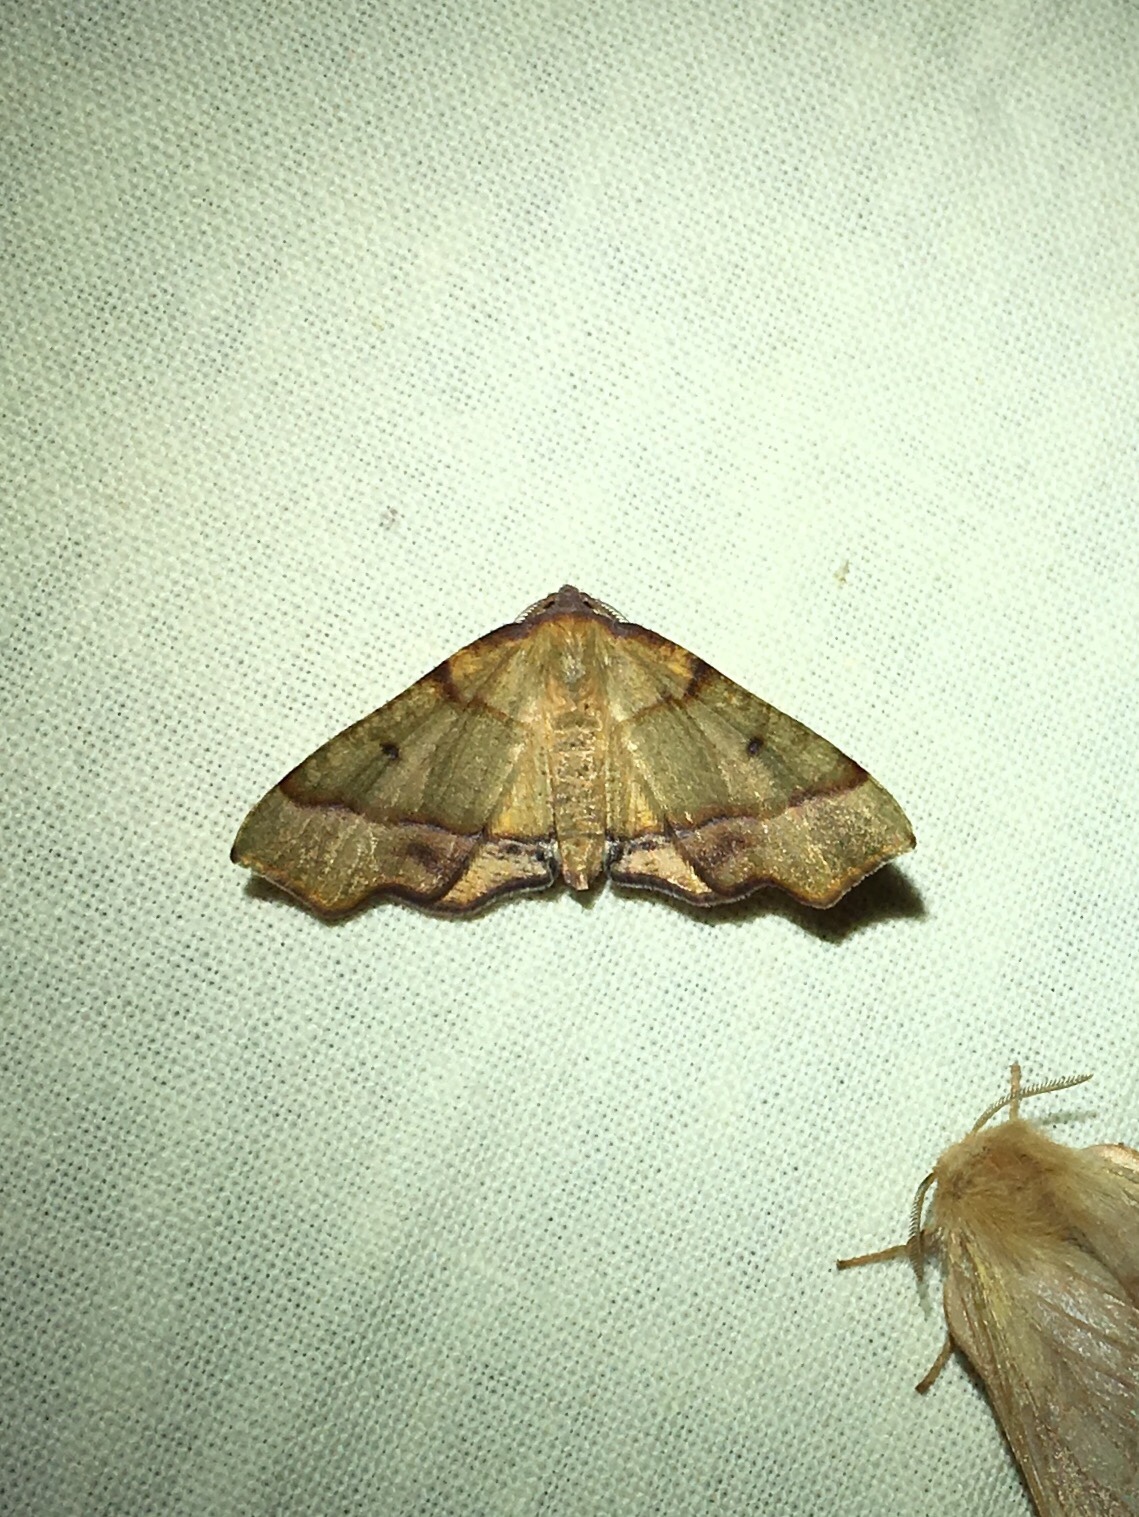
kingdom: Animalia
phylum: Arthropoda
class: Insecta
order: Lepidoptera
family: Geometridae
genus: Plagodis
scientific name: Plagodis phlogosaria
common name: Straight-lined plagodis
